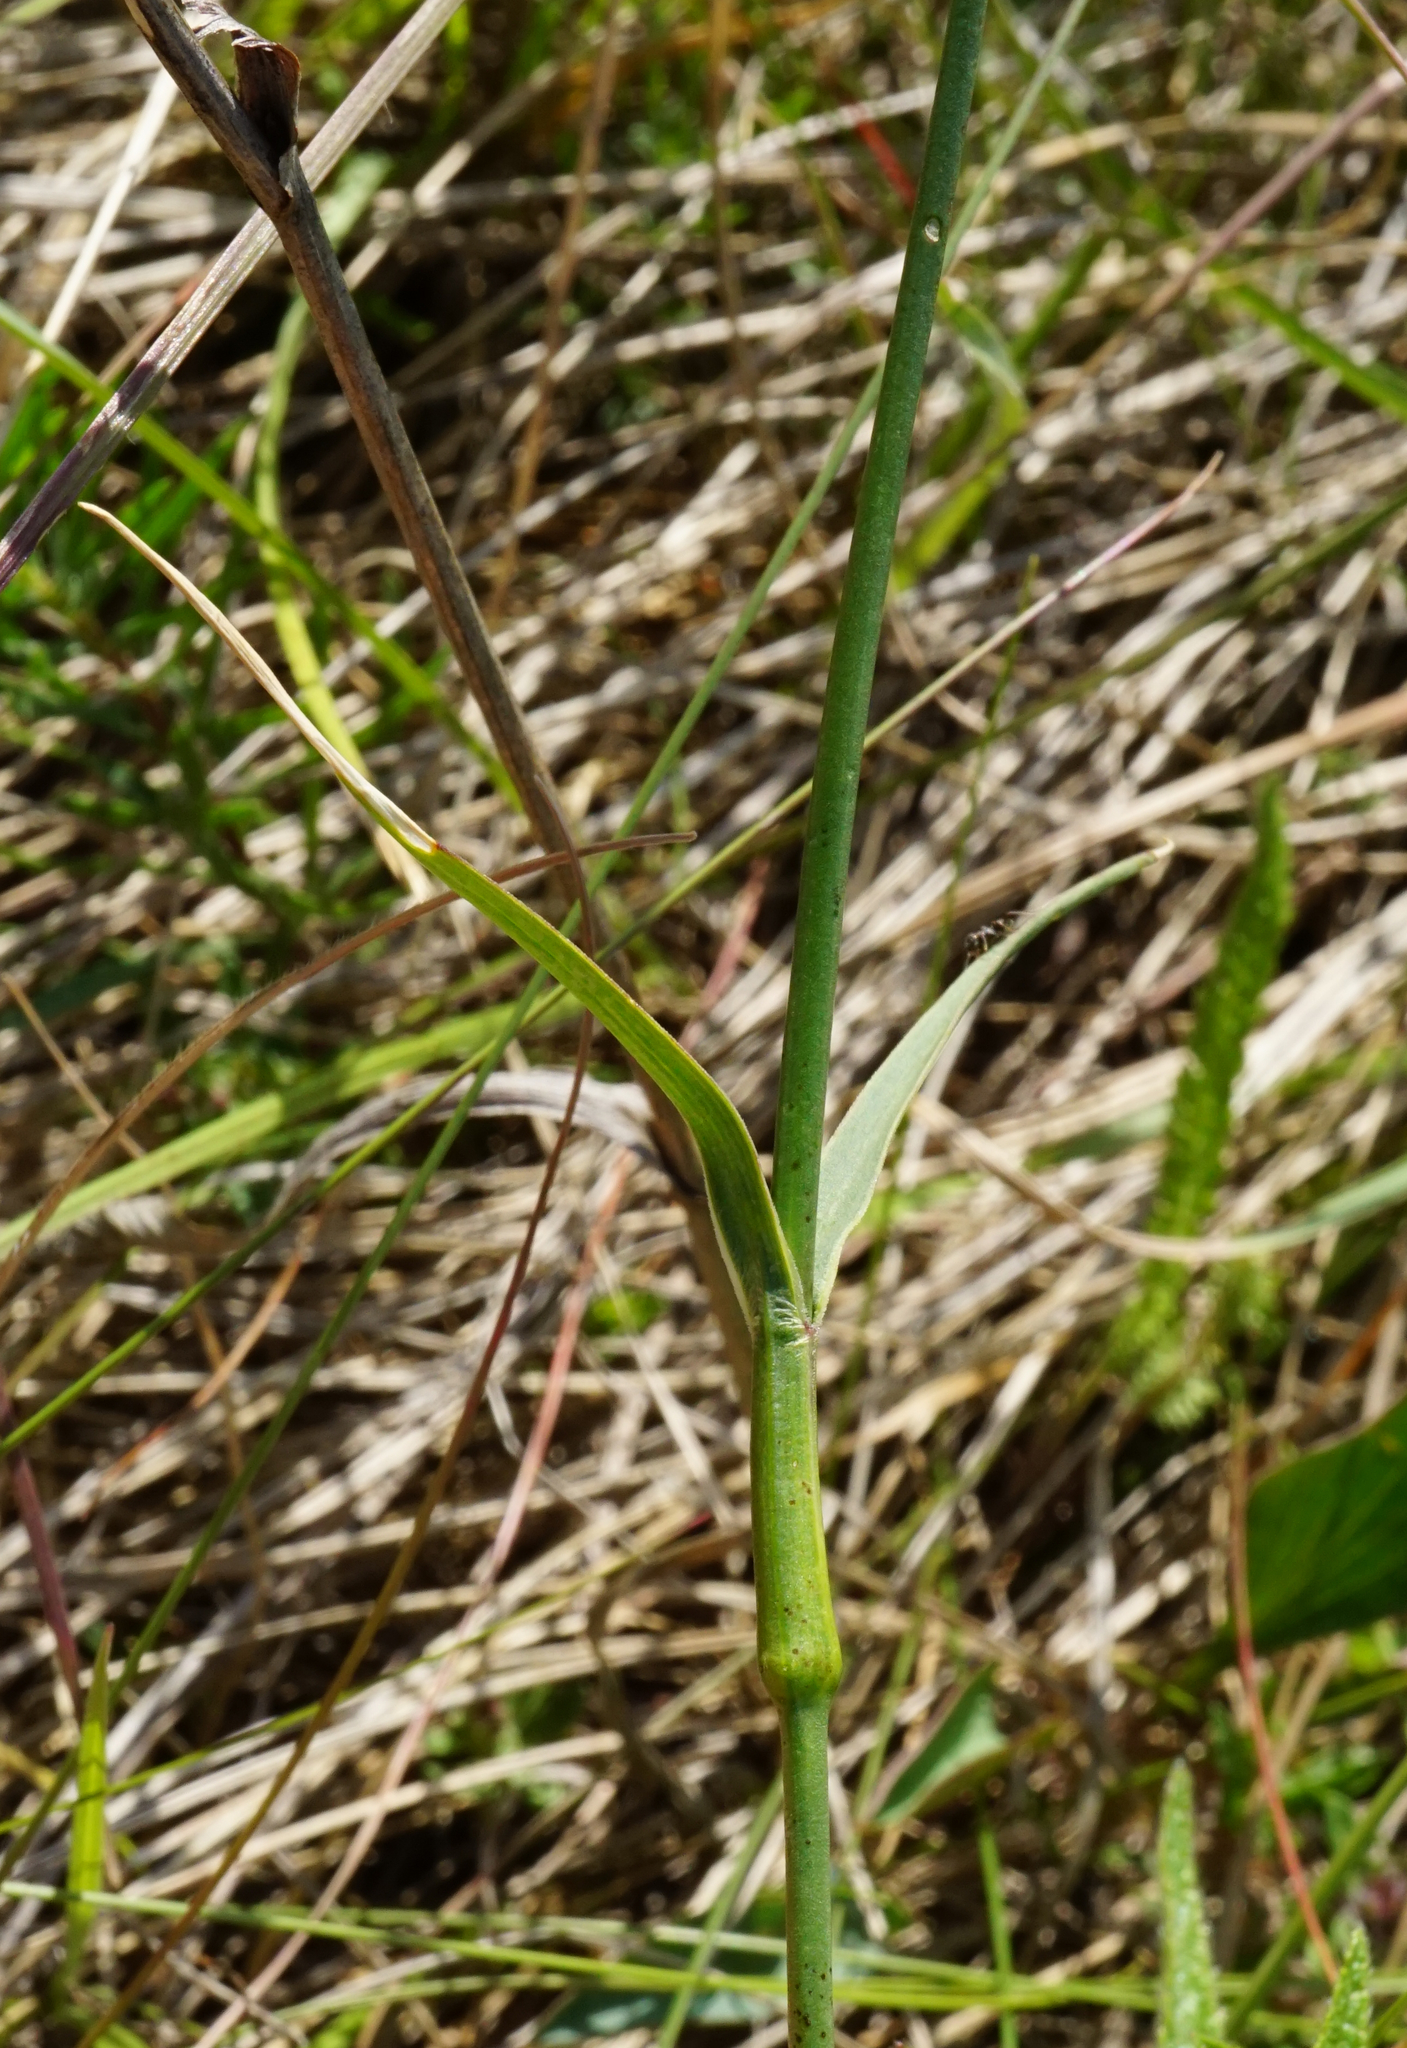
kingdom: Plantae
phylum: Tracheophyta
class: Magnoliopsida
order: Caryophyllales
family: Caryophyllaceae
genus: Dianthus
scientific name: Dianthus carthusianorum
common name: Carthusian pink
